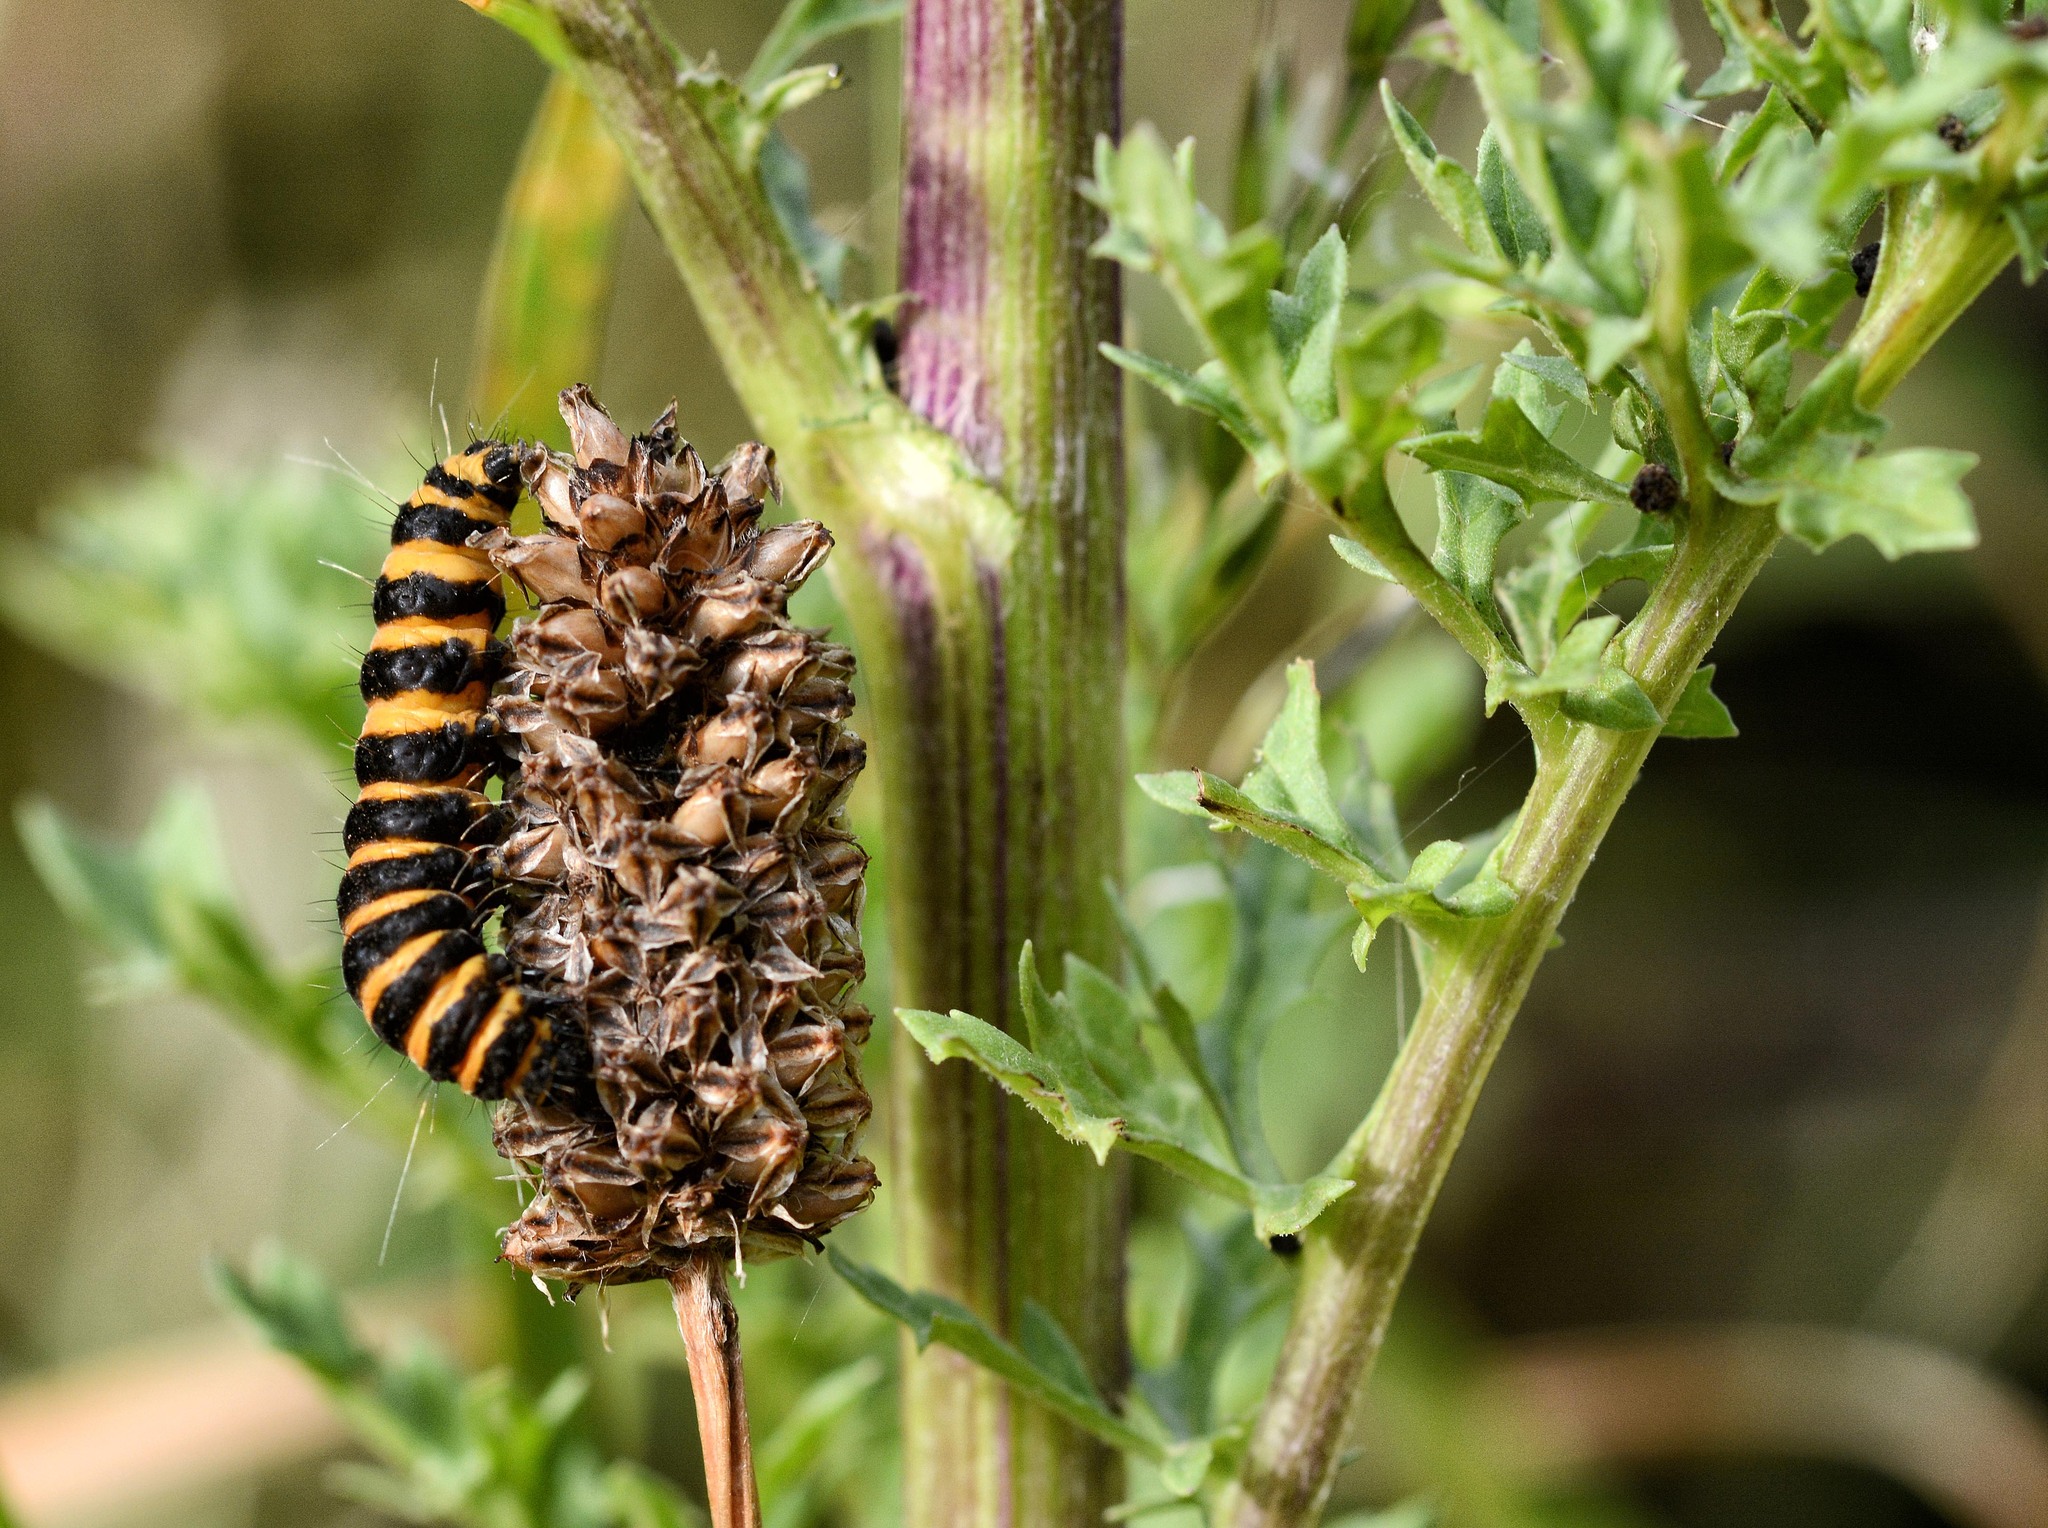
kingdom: Animalia
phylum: Arthropoda
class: Insecta
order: Lepidoptera
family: Erebidae
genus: Tyria
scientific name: Tyria jacobaeae
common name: Cinnabar
